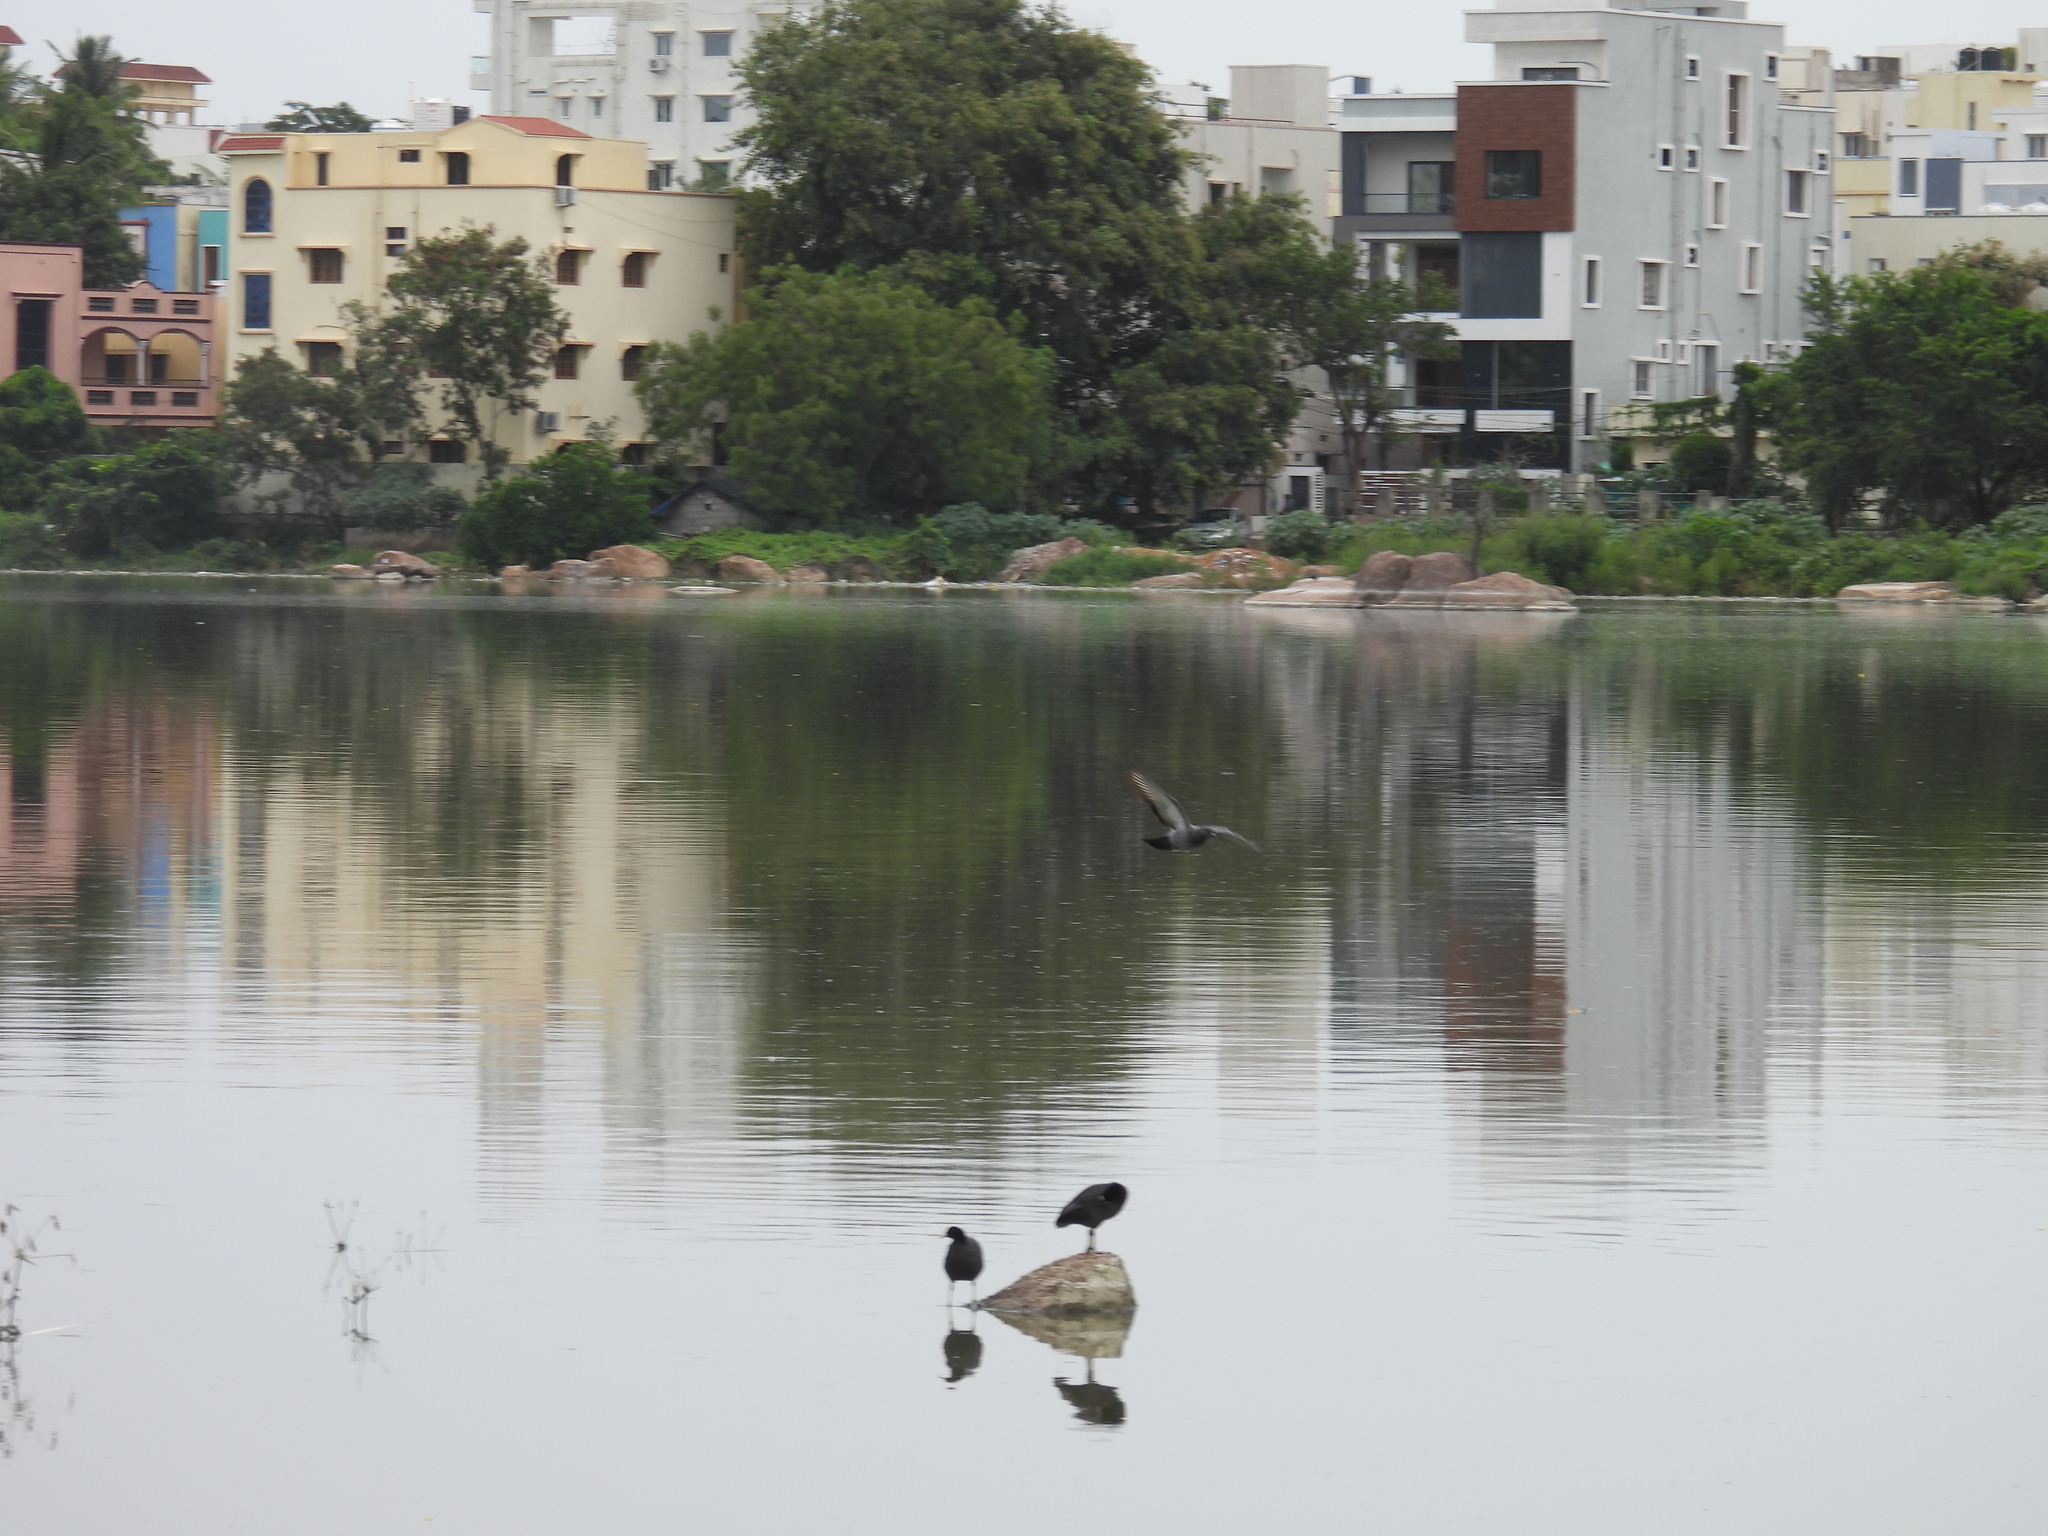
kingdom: Animalia
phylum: Chordata
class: Aves
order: Columbiformes
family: Columbidae
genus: Columba
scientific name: Columba livia
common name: Rock pigeon
